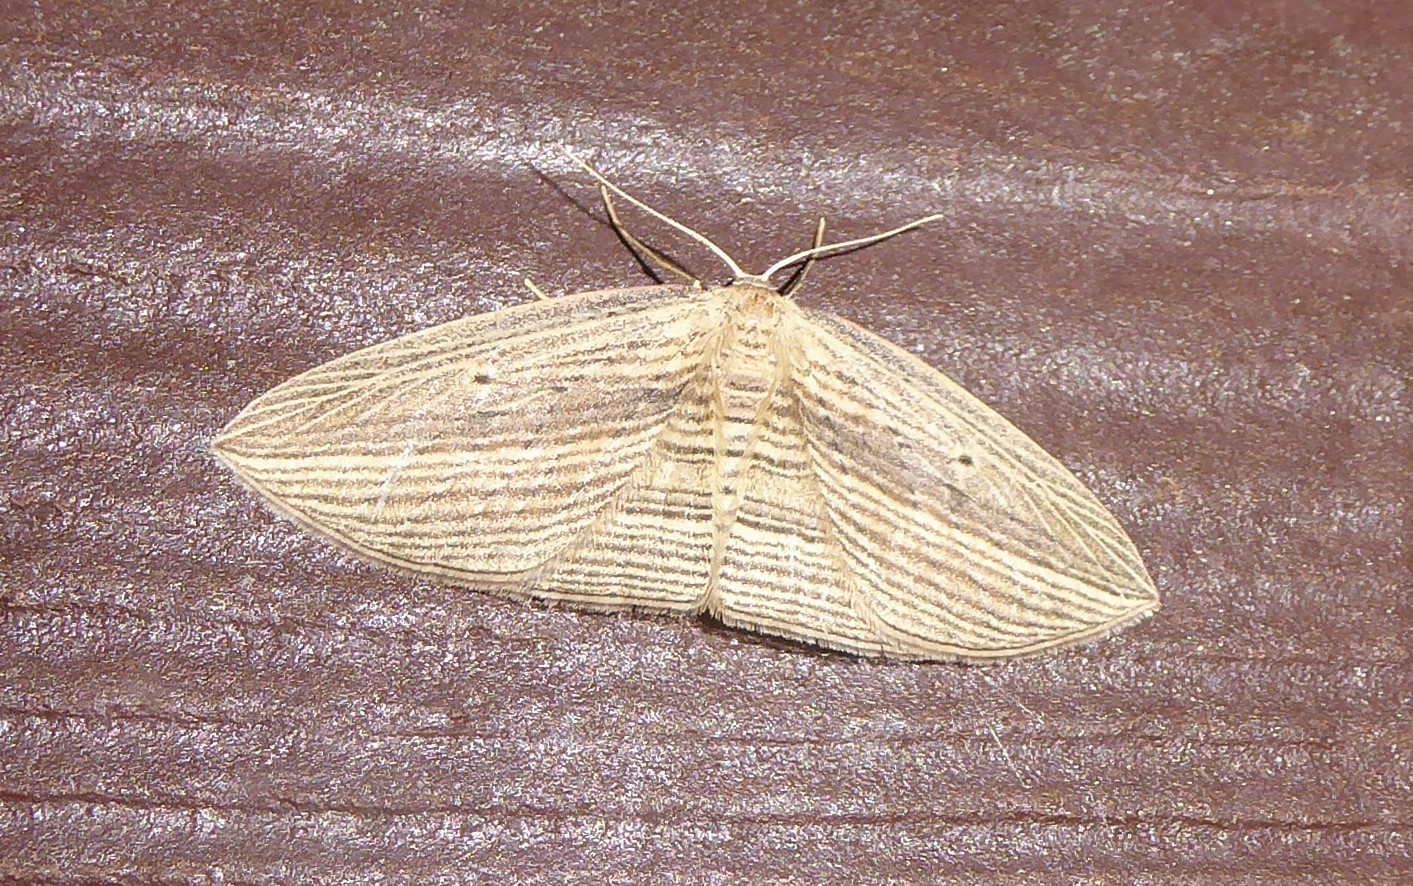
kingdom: Animalia
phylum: Arthropoda
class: Insecta
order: Lepidoptera
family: Geometridae
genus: Epiphryne
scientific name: Epiphryne verriculata
